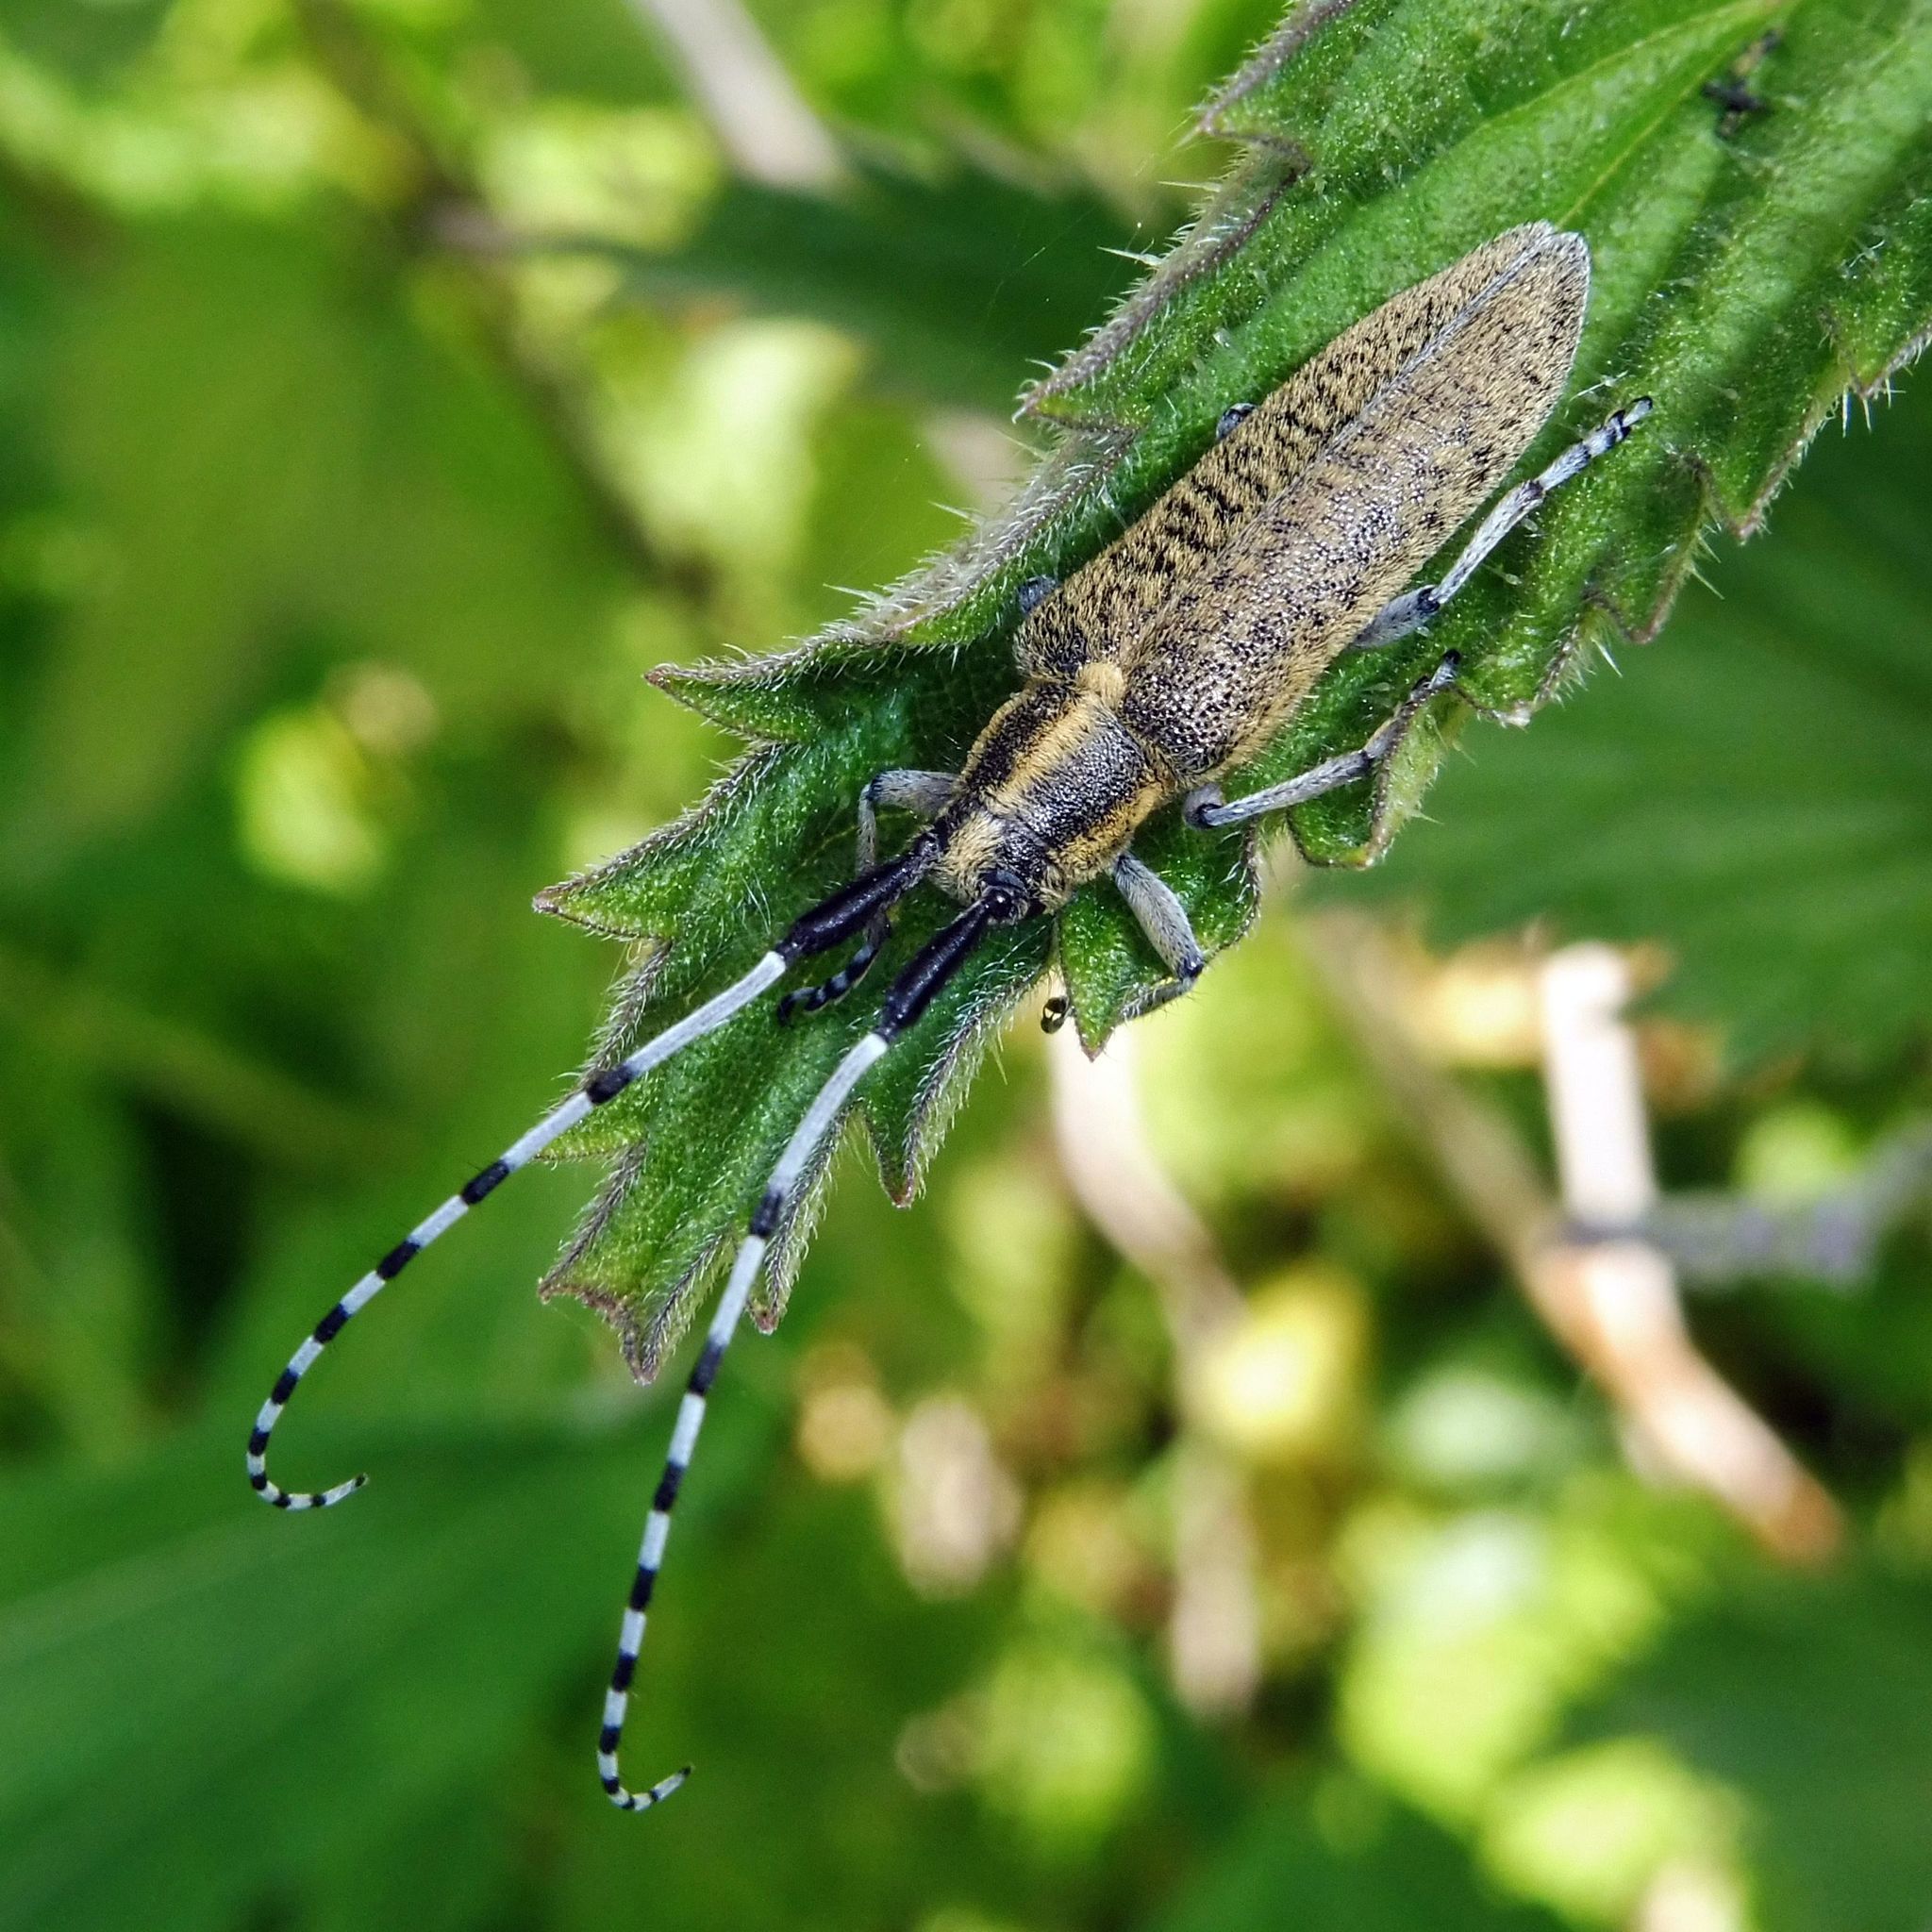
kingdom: Animalia
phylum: Arthropoda
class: Insecta
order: Coleoptera
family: Cerambycidae
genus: Agapanthia
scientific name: Agapanthia villosoviridescens
